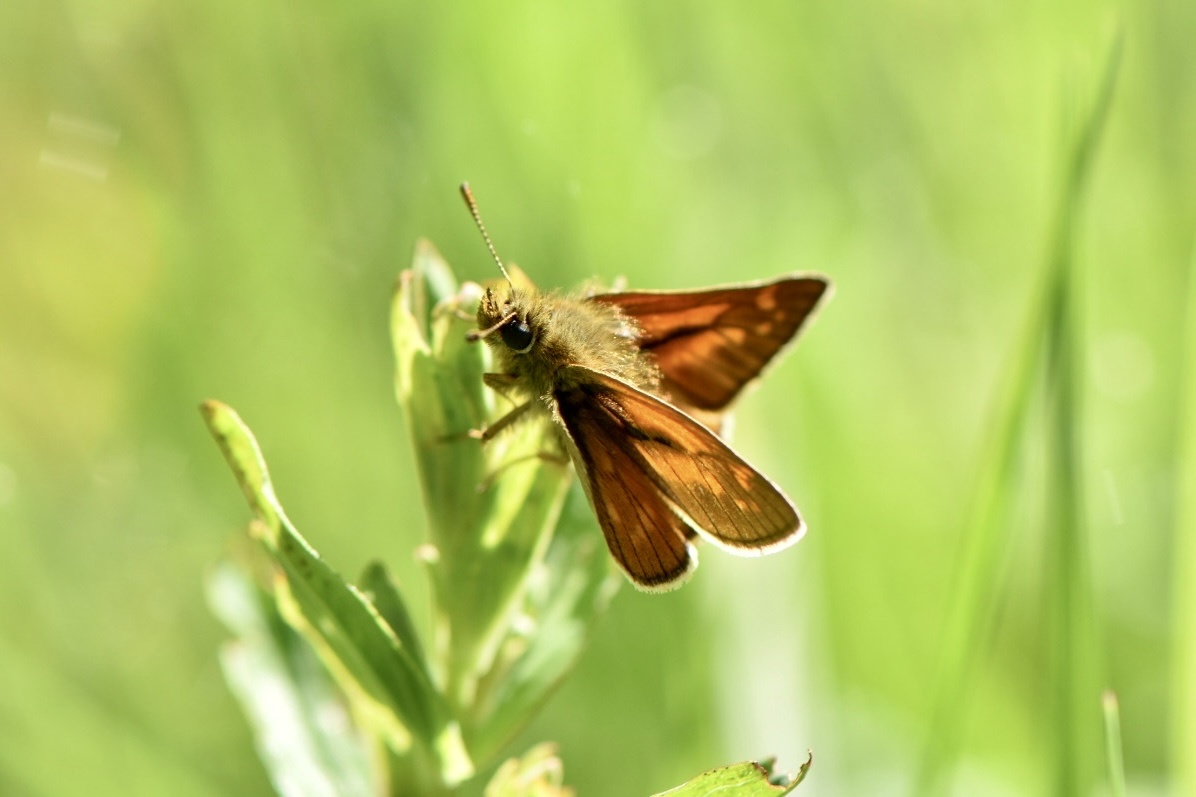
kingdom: Animalia
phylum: Arthropoda
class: Insecta
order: Lepidoptera
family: Hesperiidae
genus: Ochlodes
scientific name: Ochlodes venata
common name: Large skipper
